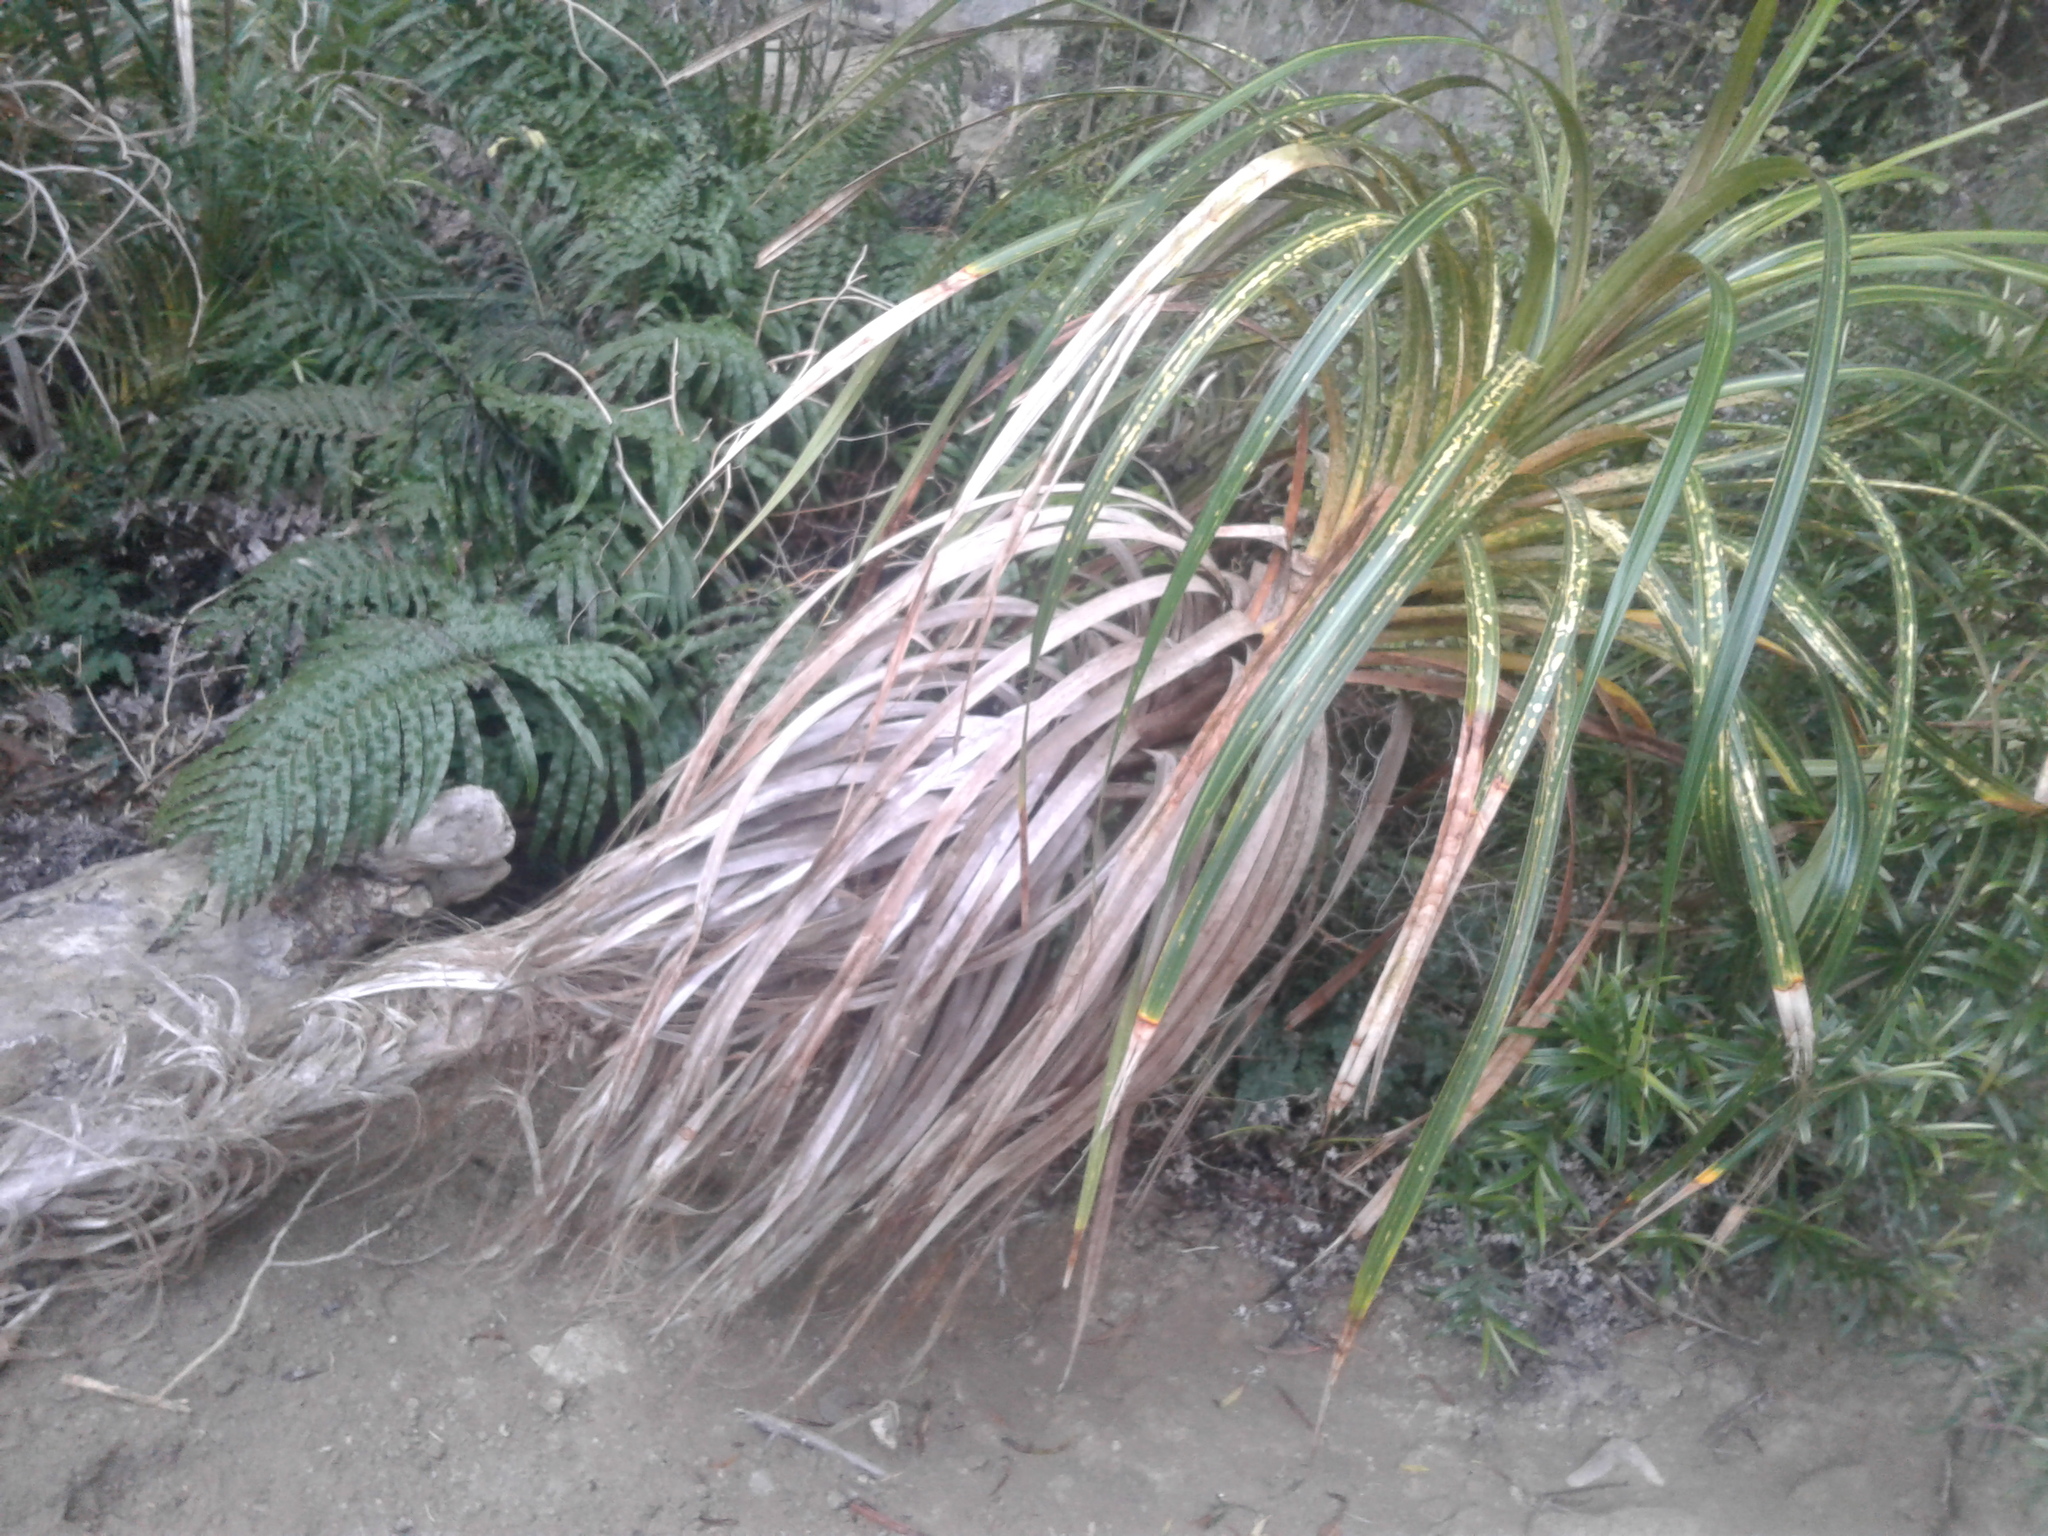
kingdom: Plantae
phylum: Tracheophyta
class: Liliopsida
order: Pandanales
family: Pandanaceae
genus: Freycinetia
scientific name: Freycinetia banksii
